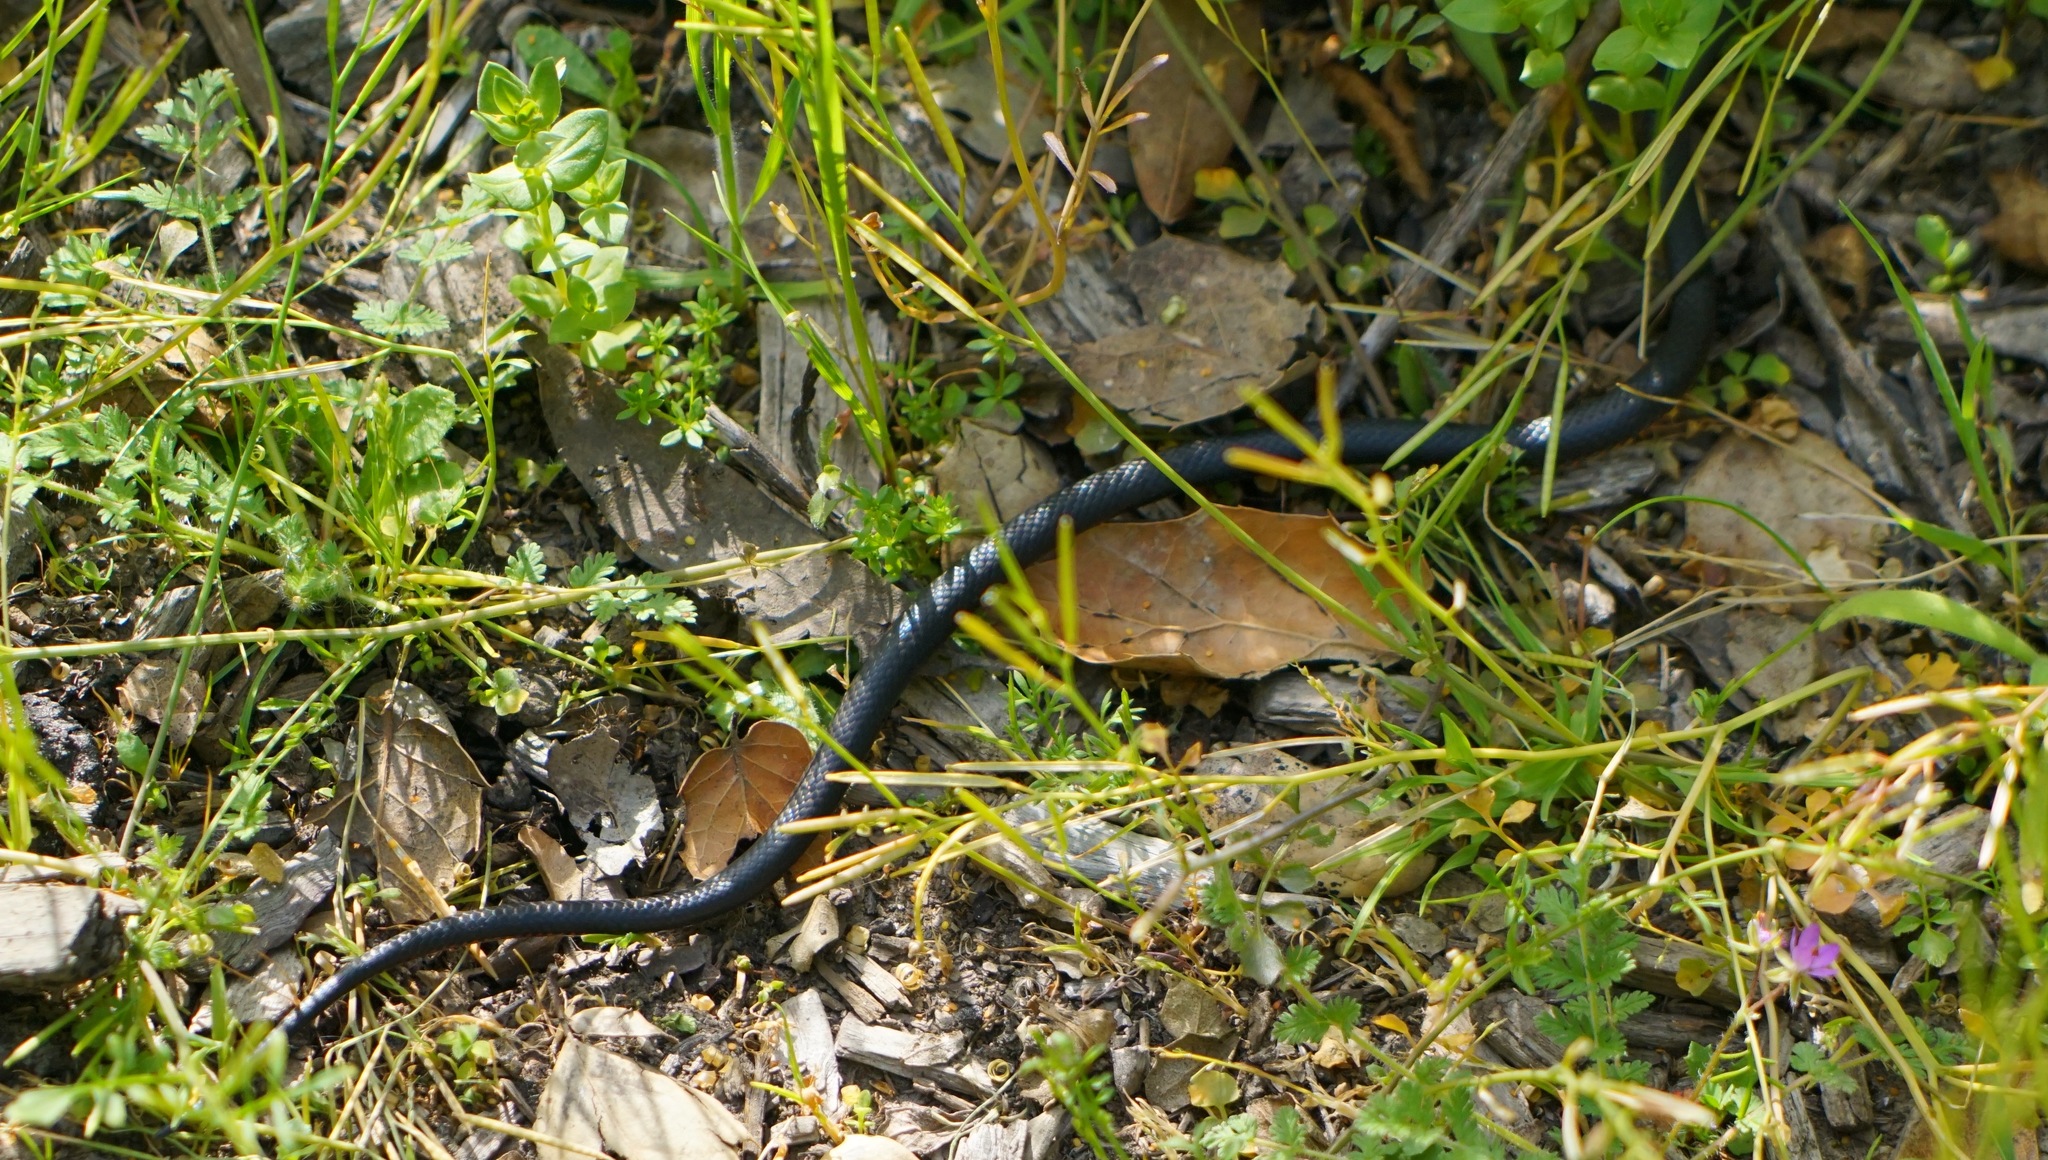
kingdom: Animalia
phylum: Chordata
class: Squamata
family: Colubridae
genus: Diadophis
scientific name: Diadophis punctatus
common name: Ringneck snake
